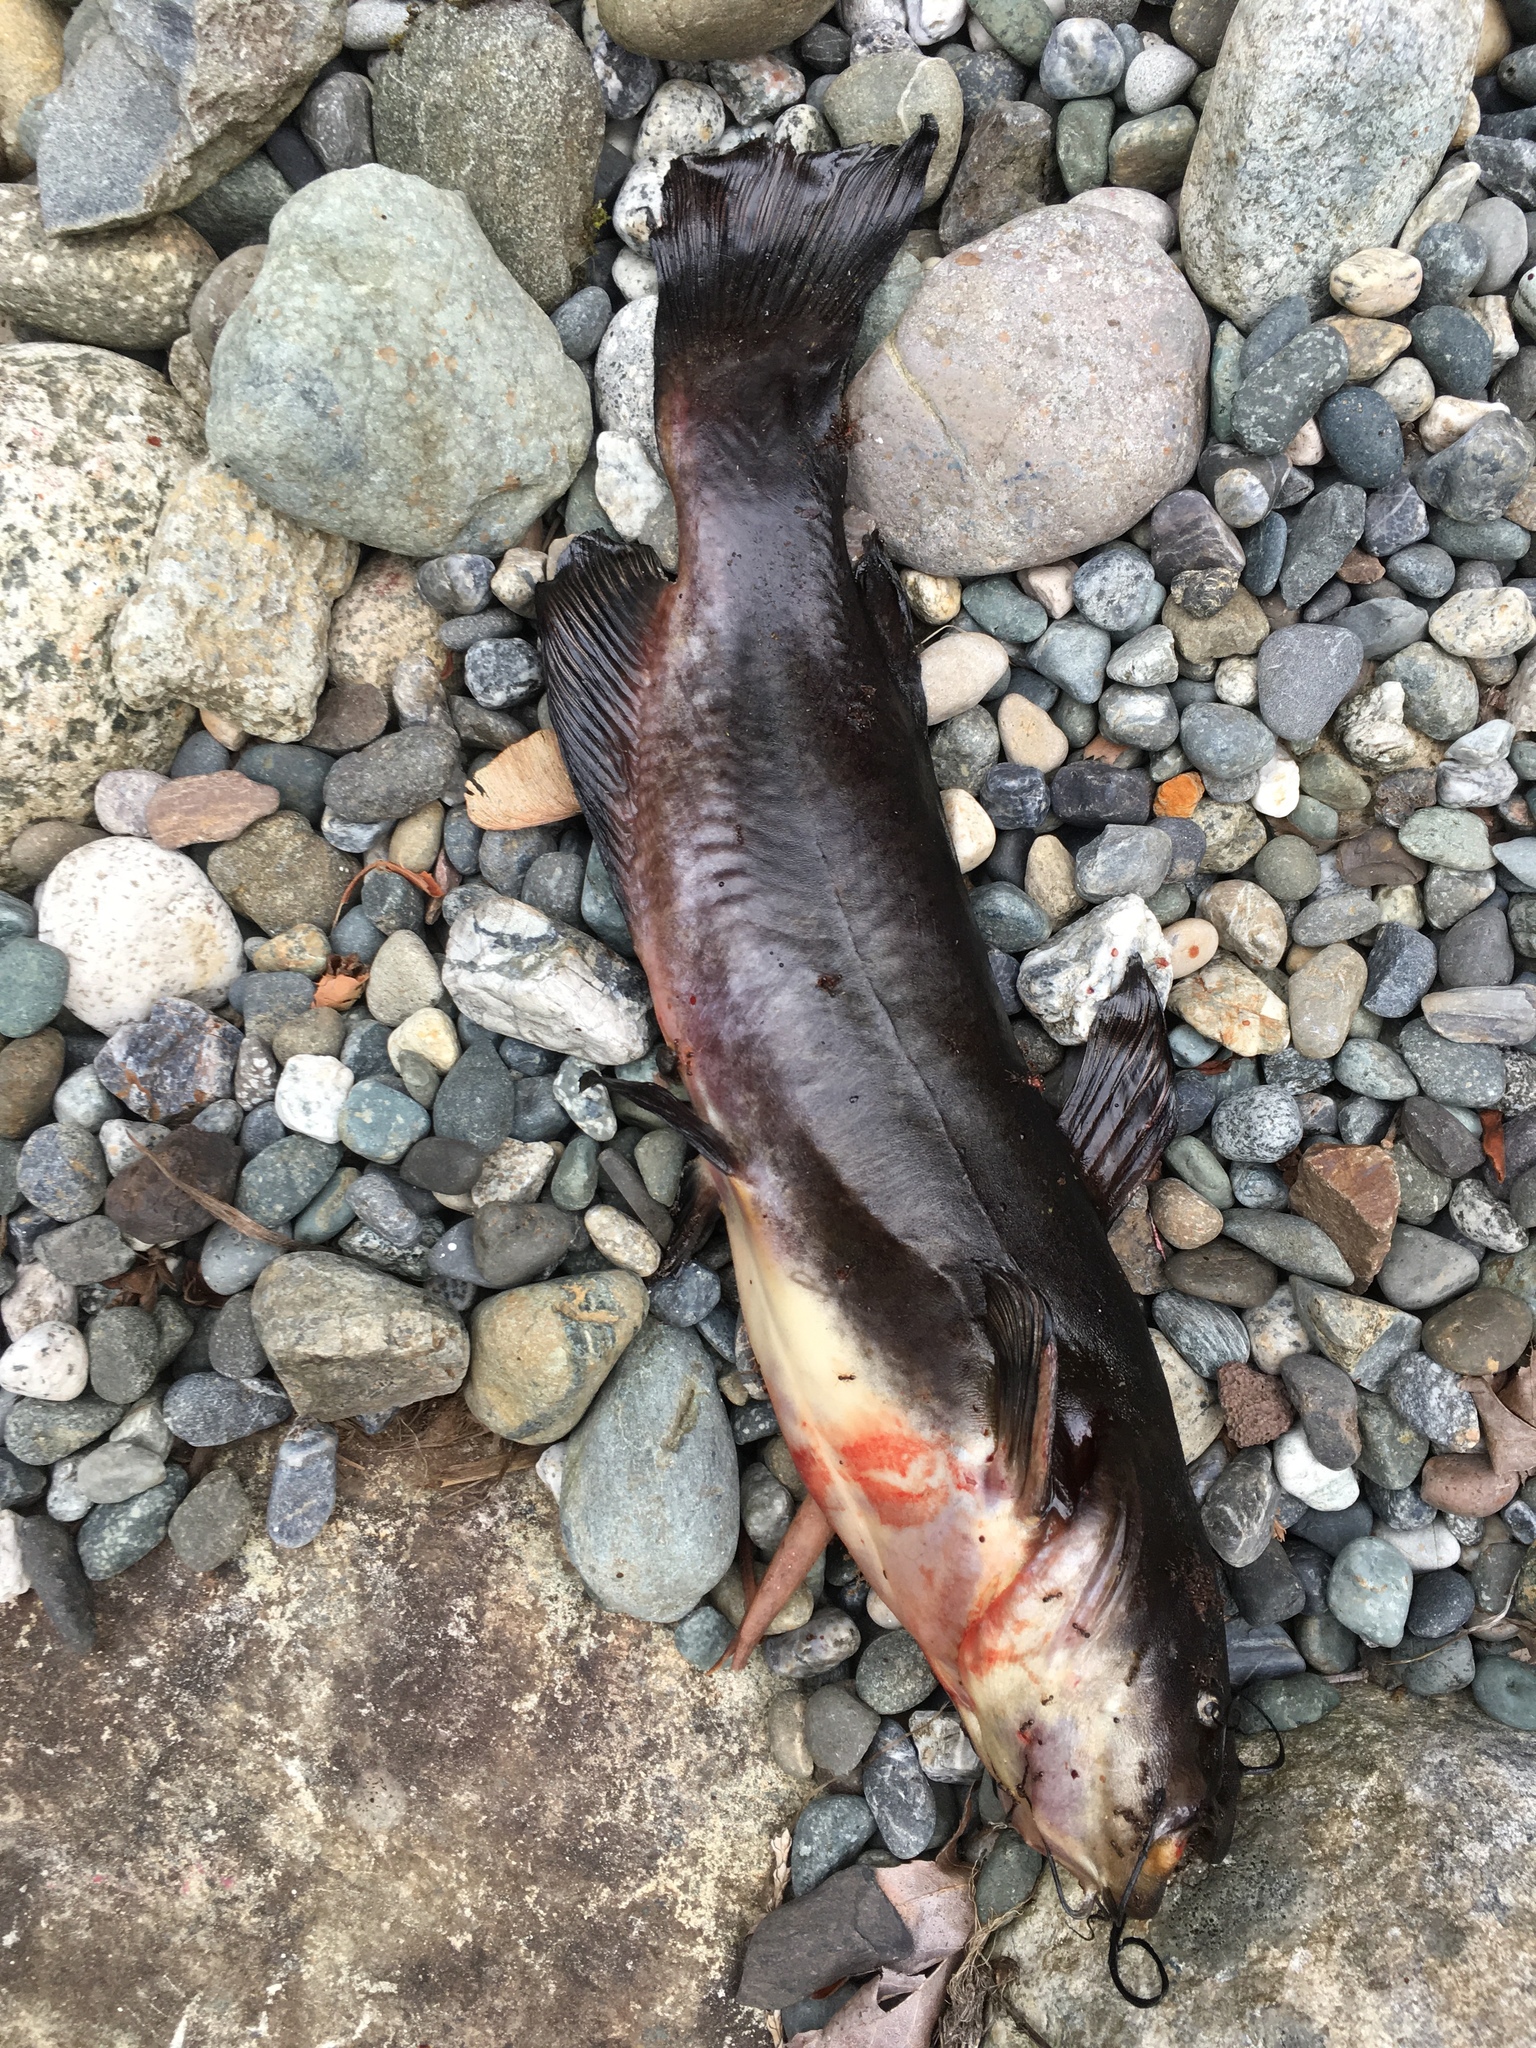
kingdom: Animalia
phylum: Chordata
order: Siluriformes
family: Ictaluridae
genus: Ameiurus
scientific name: Ameiurus nebulosus
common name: Brown bullhead
